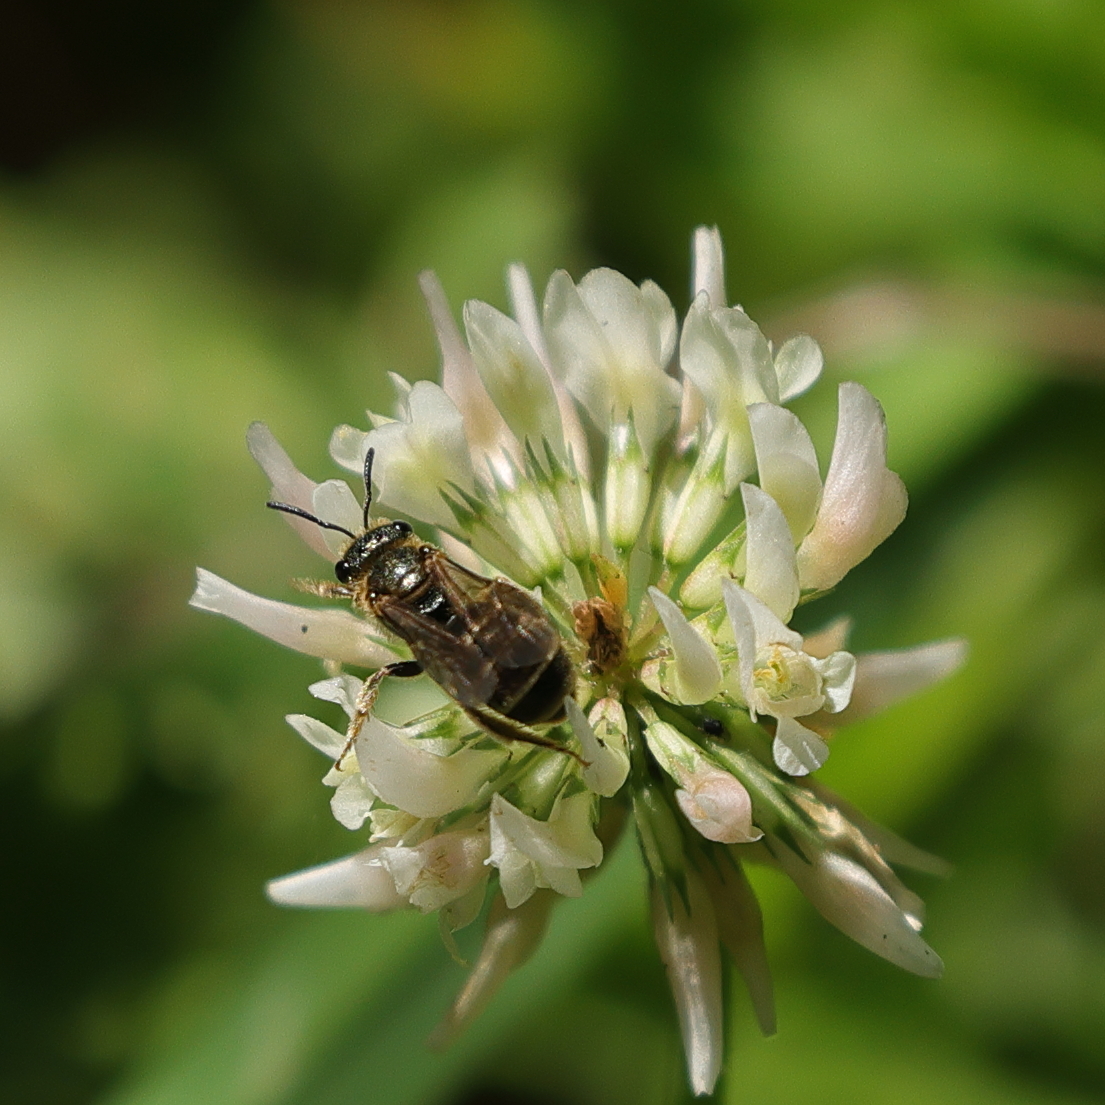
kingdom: Animalia
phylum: Arthropoda
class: Insecta
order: Hymenoptera
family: Halictidae
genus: Halictus
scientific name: Halictus confusus
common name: Southern bronze furrow bee
